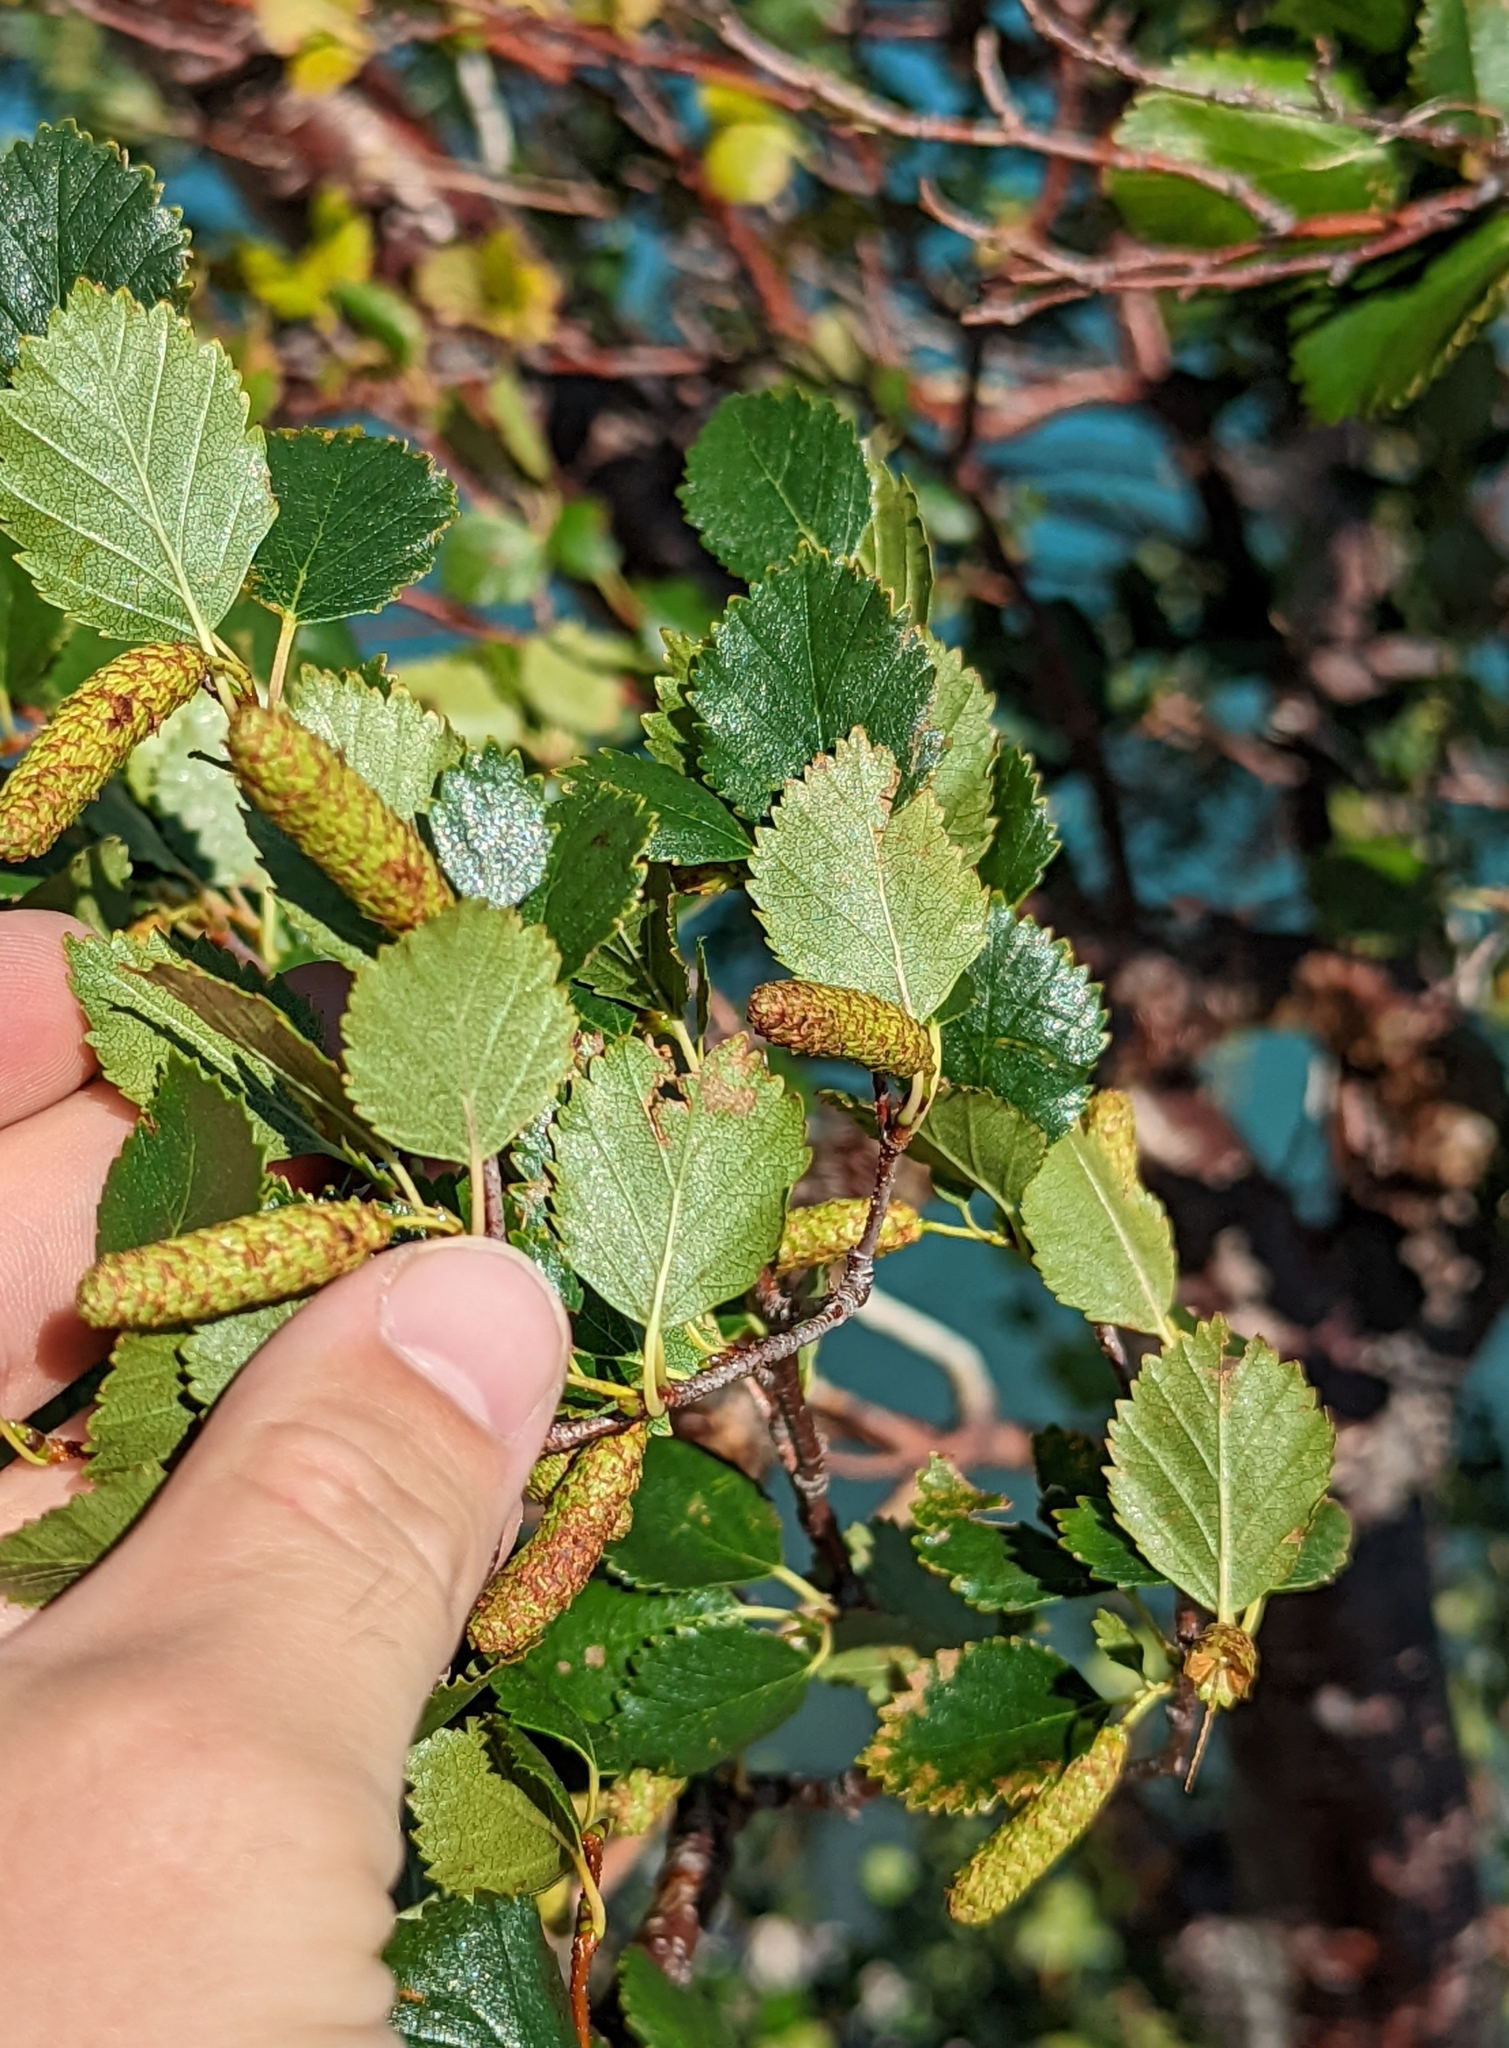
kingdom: Plantae
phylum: Tracheophyta
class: Magnoliopsida
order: Fagales
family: Betulaceae
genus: Betula
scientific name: Betula occidentalis
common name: River birch
